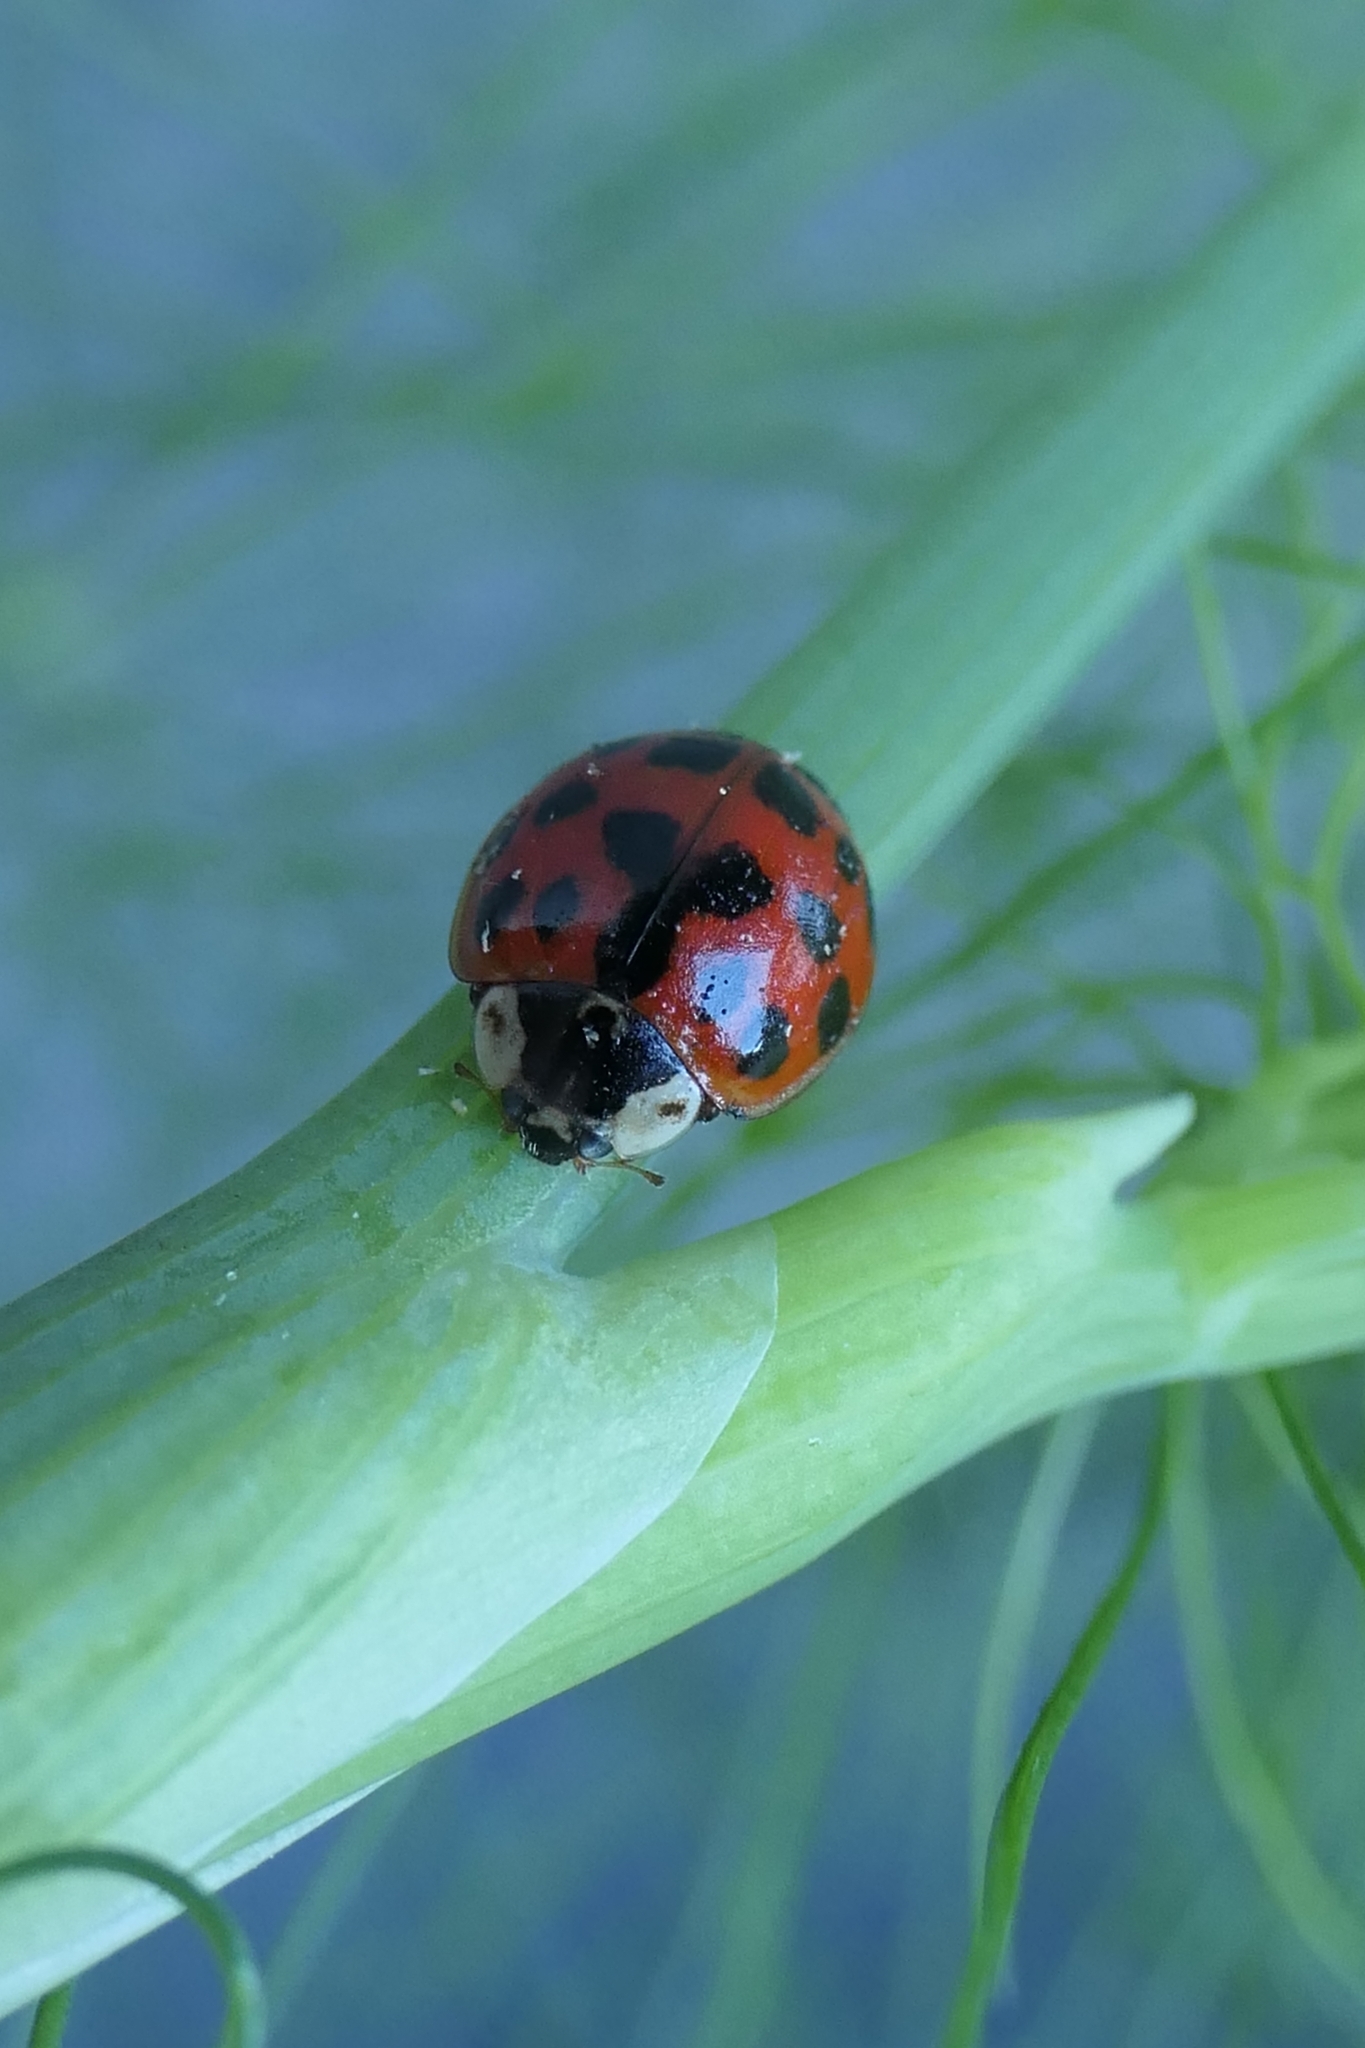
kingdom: Animalia
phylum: Arthropoda
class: Insecta
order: Coleoptera
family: Coccinellidae
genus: Harmonia
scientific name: Harmonia axyridis
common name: Harlequin ladybird
